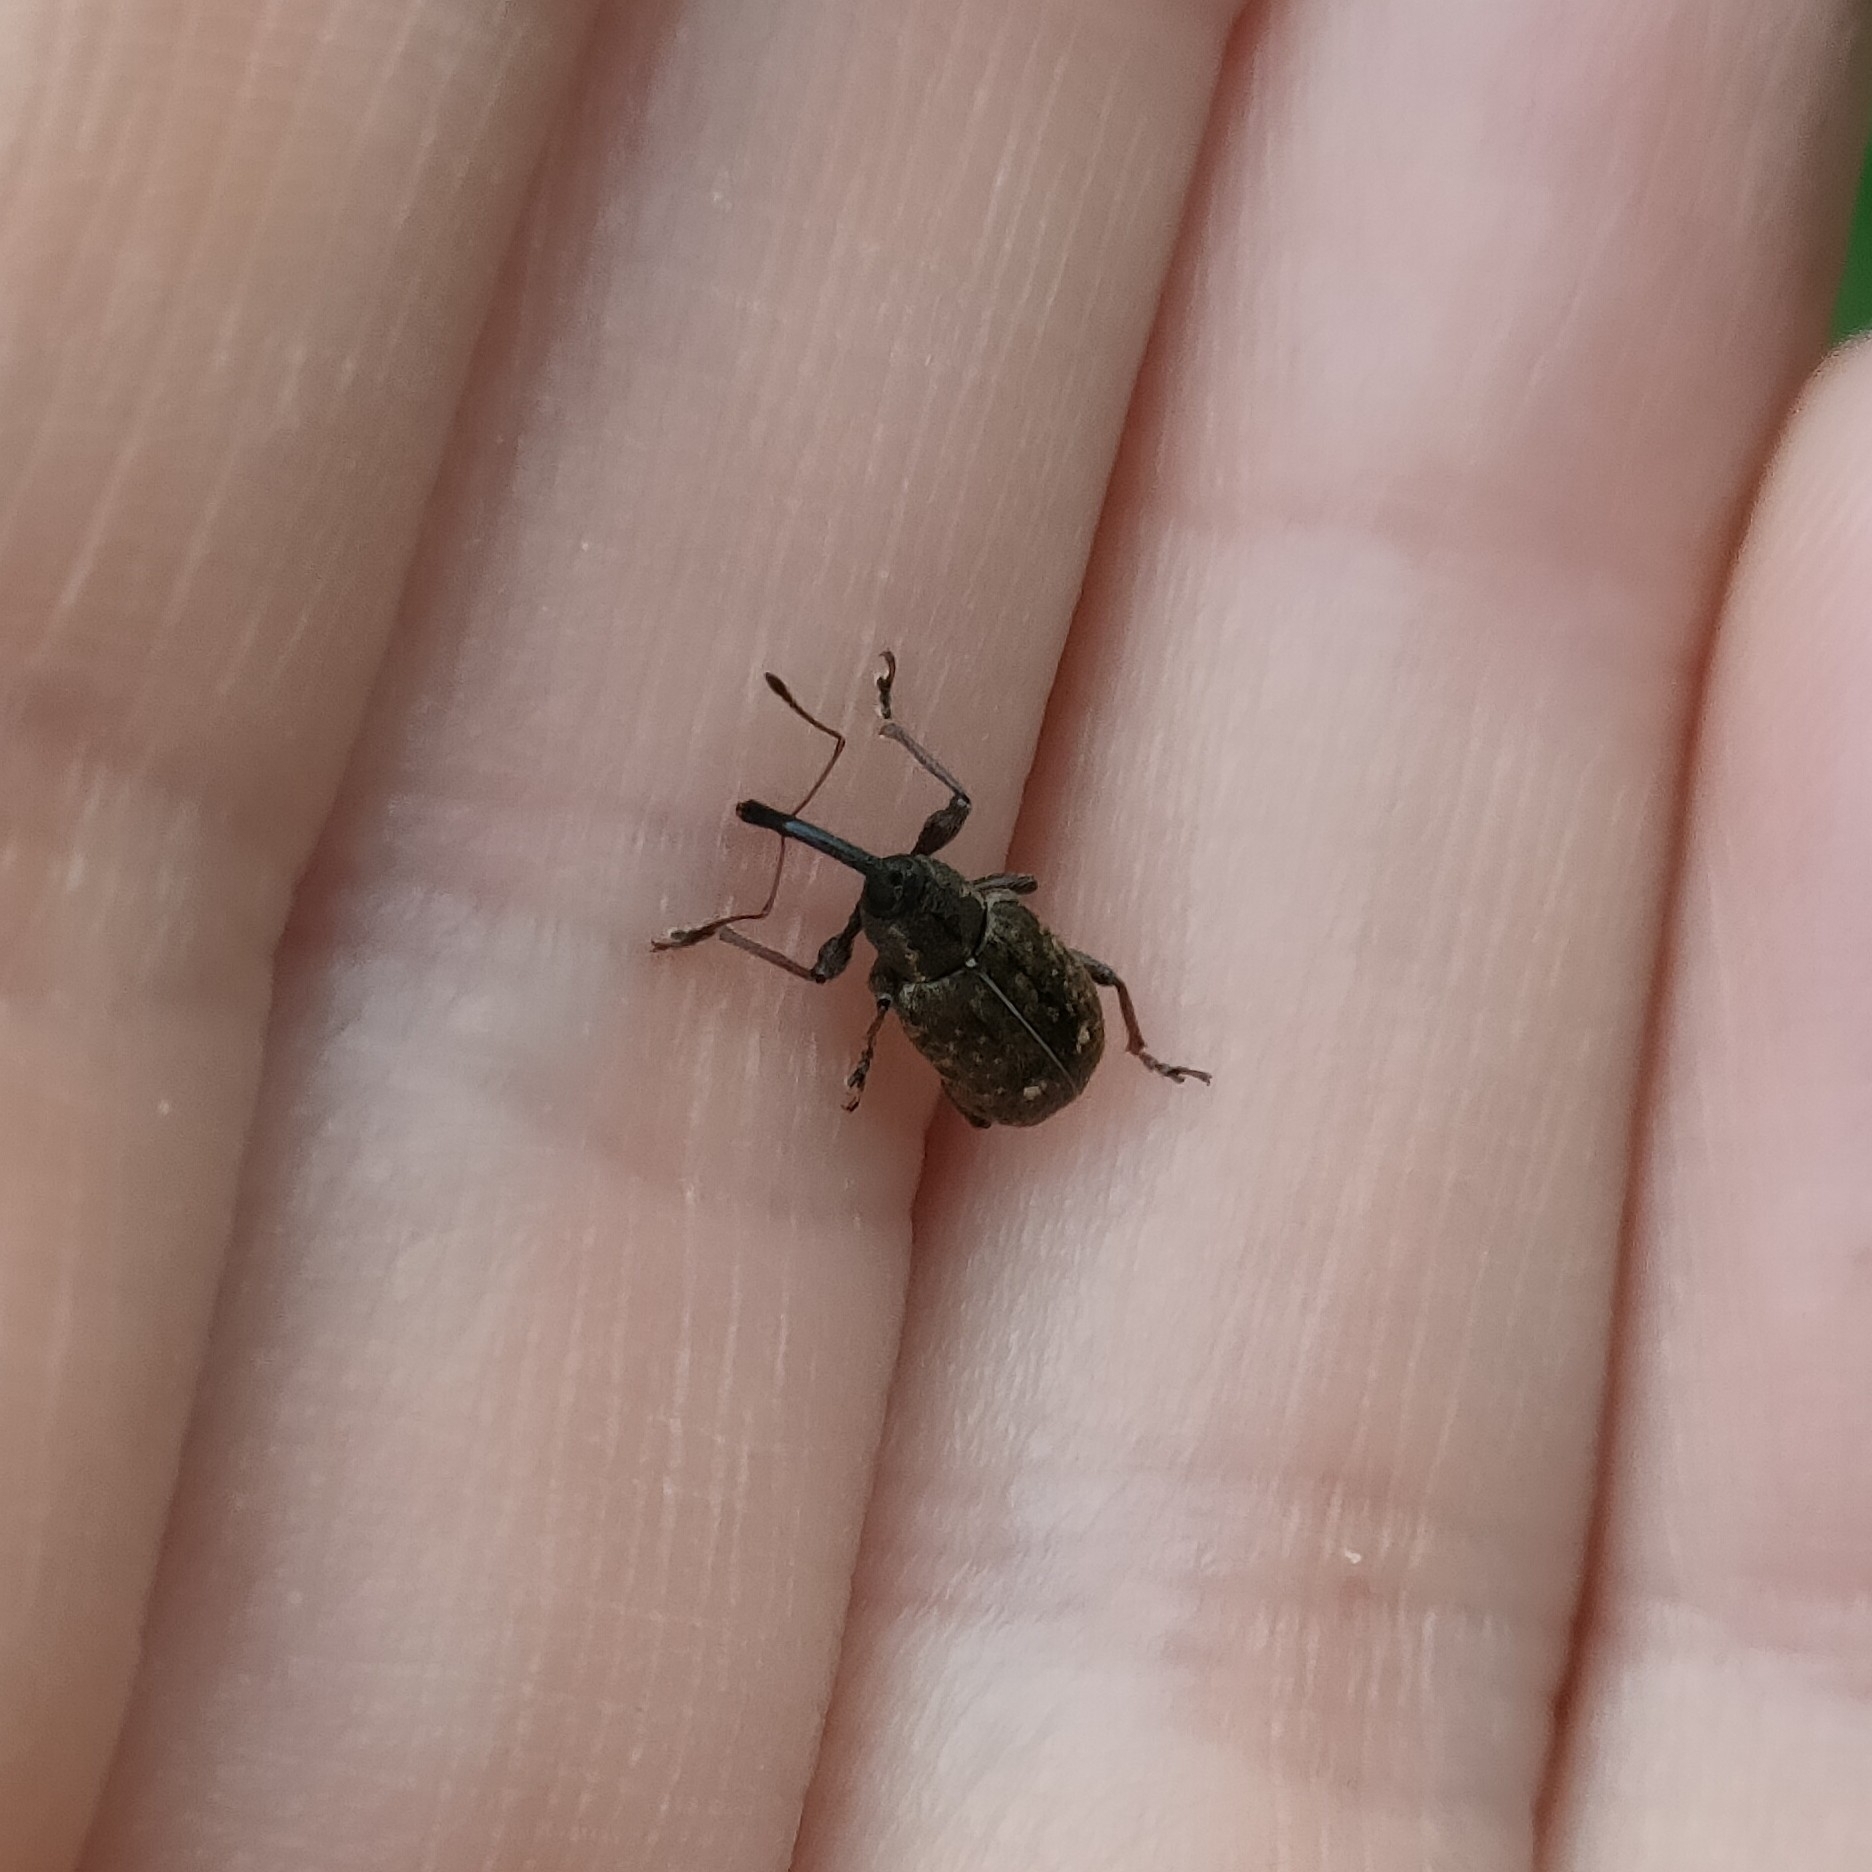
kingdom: Animalia
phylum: Arthropoda
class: Insecta
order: Coleoptera
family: Brachyceridae
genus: Notaris
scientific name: Notaris scirpi
